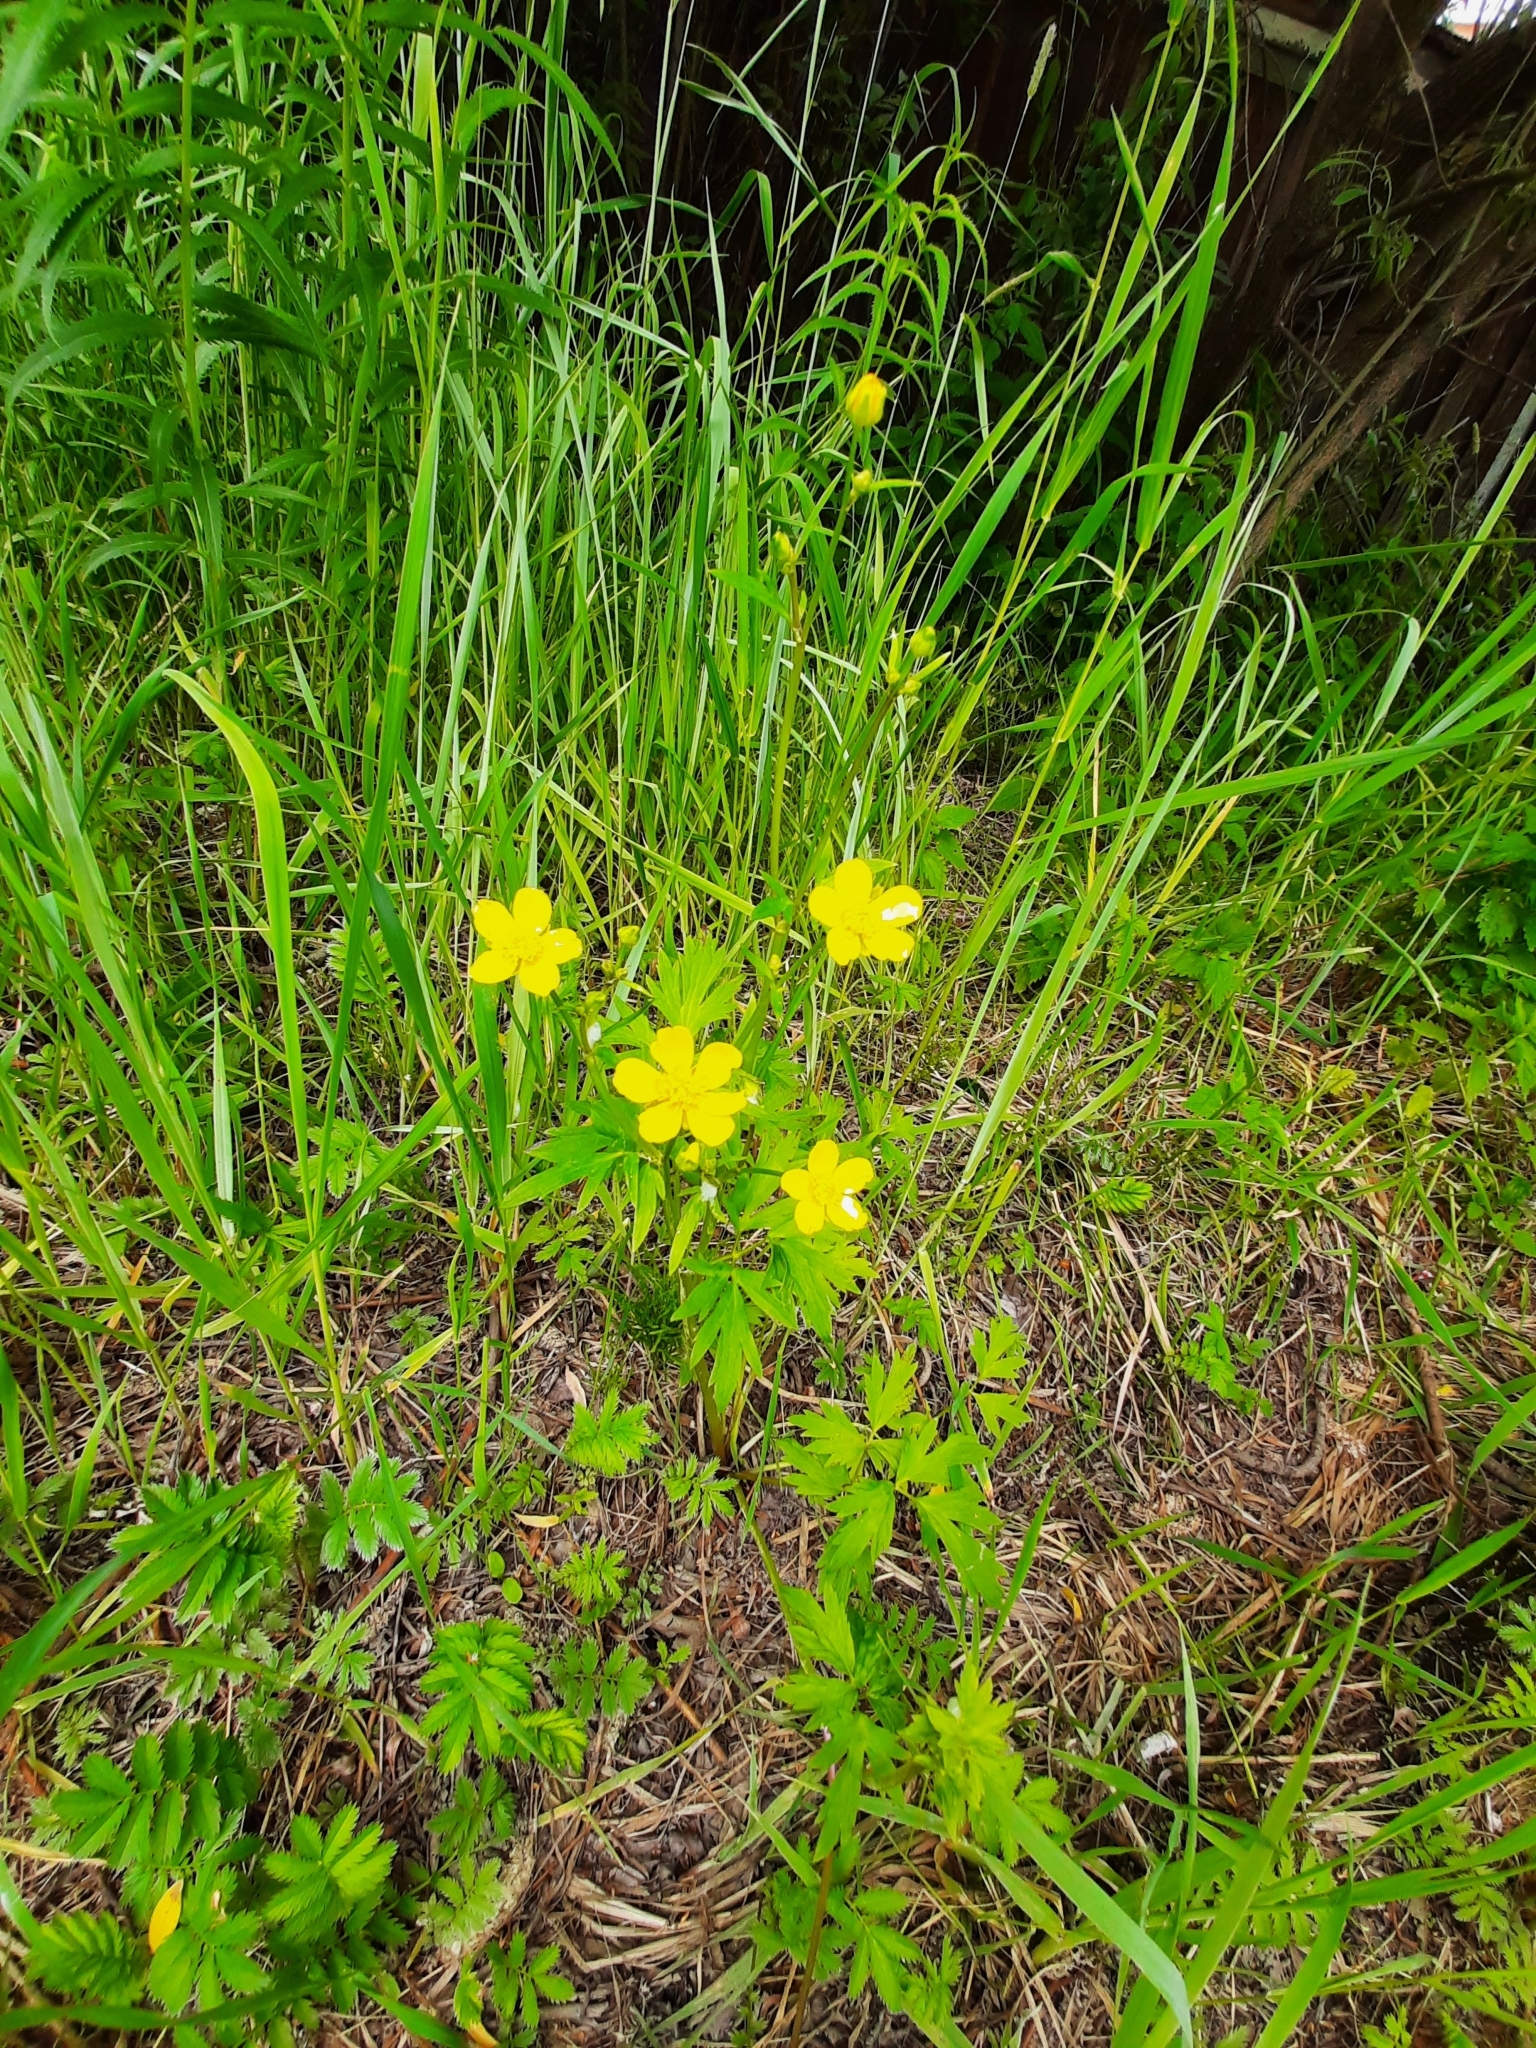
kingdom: Plantae
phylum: Tracheophyta
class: Magnoliopsida
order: Ranunculales
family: Ranunculaceae
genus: Ranunculus
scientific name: Ranunculus repens
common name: Creeping buttercup
